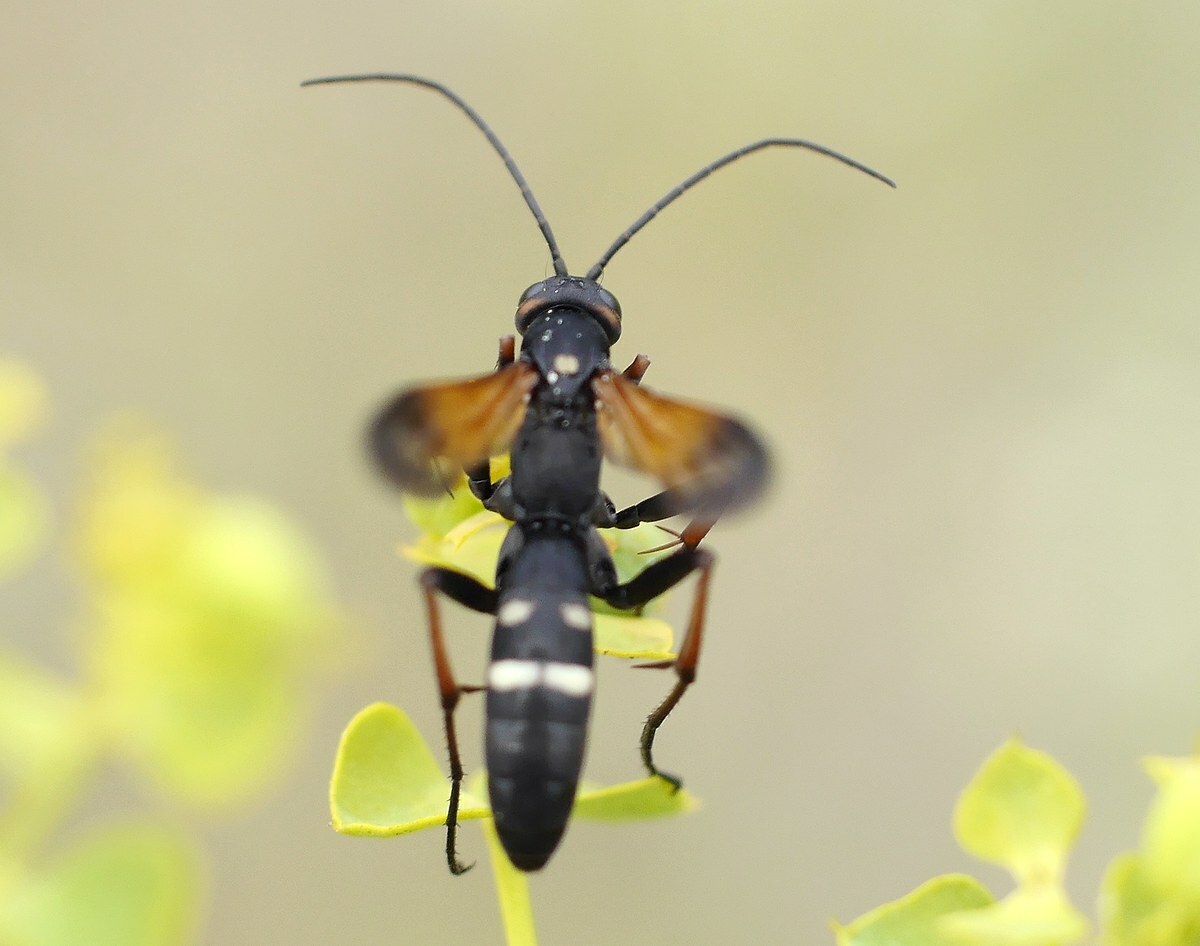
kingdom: Animalia
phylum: Arthropoda
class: Insecta
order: Hymenoptera
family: Pompilidae
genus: Cryptocheilus
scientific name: Cryptocheilus octomaculatus
